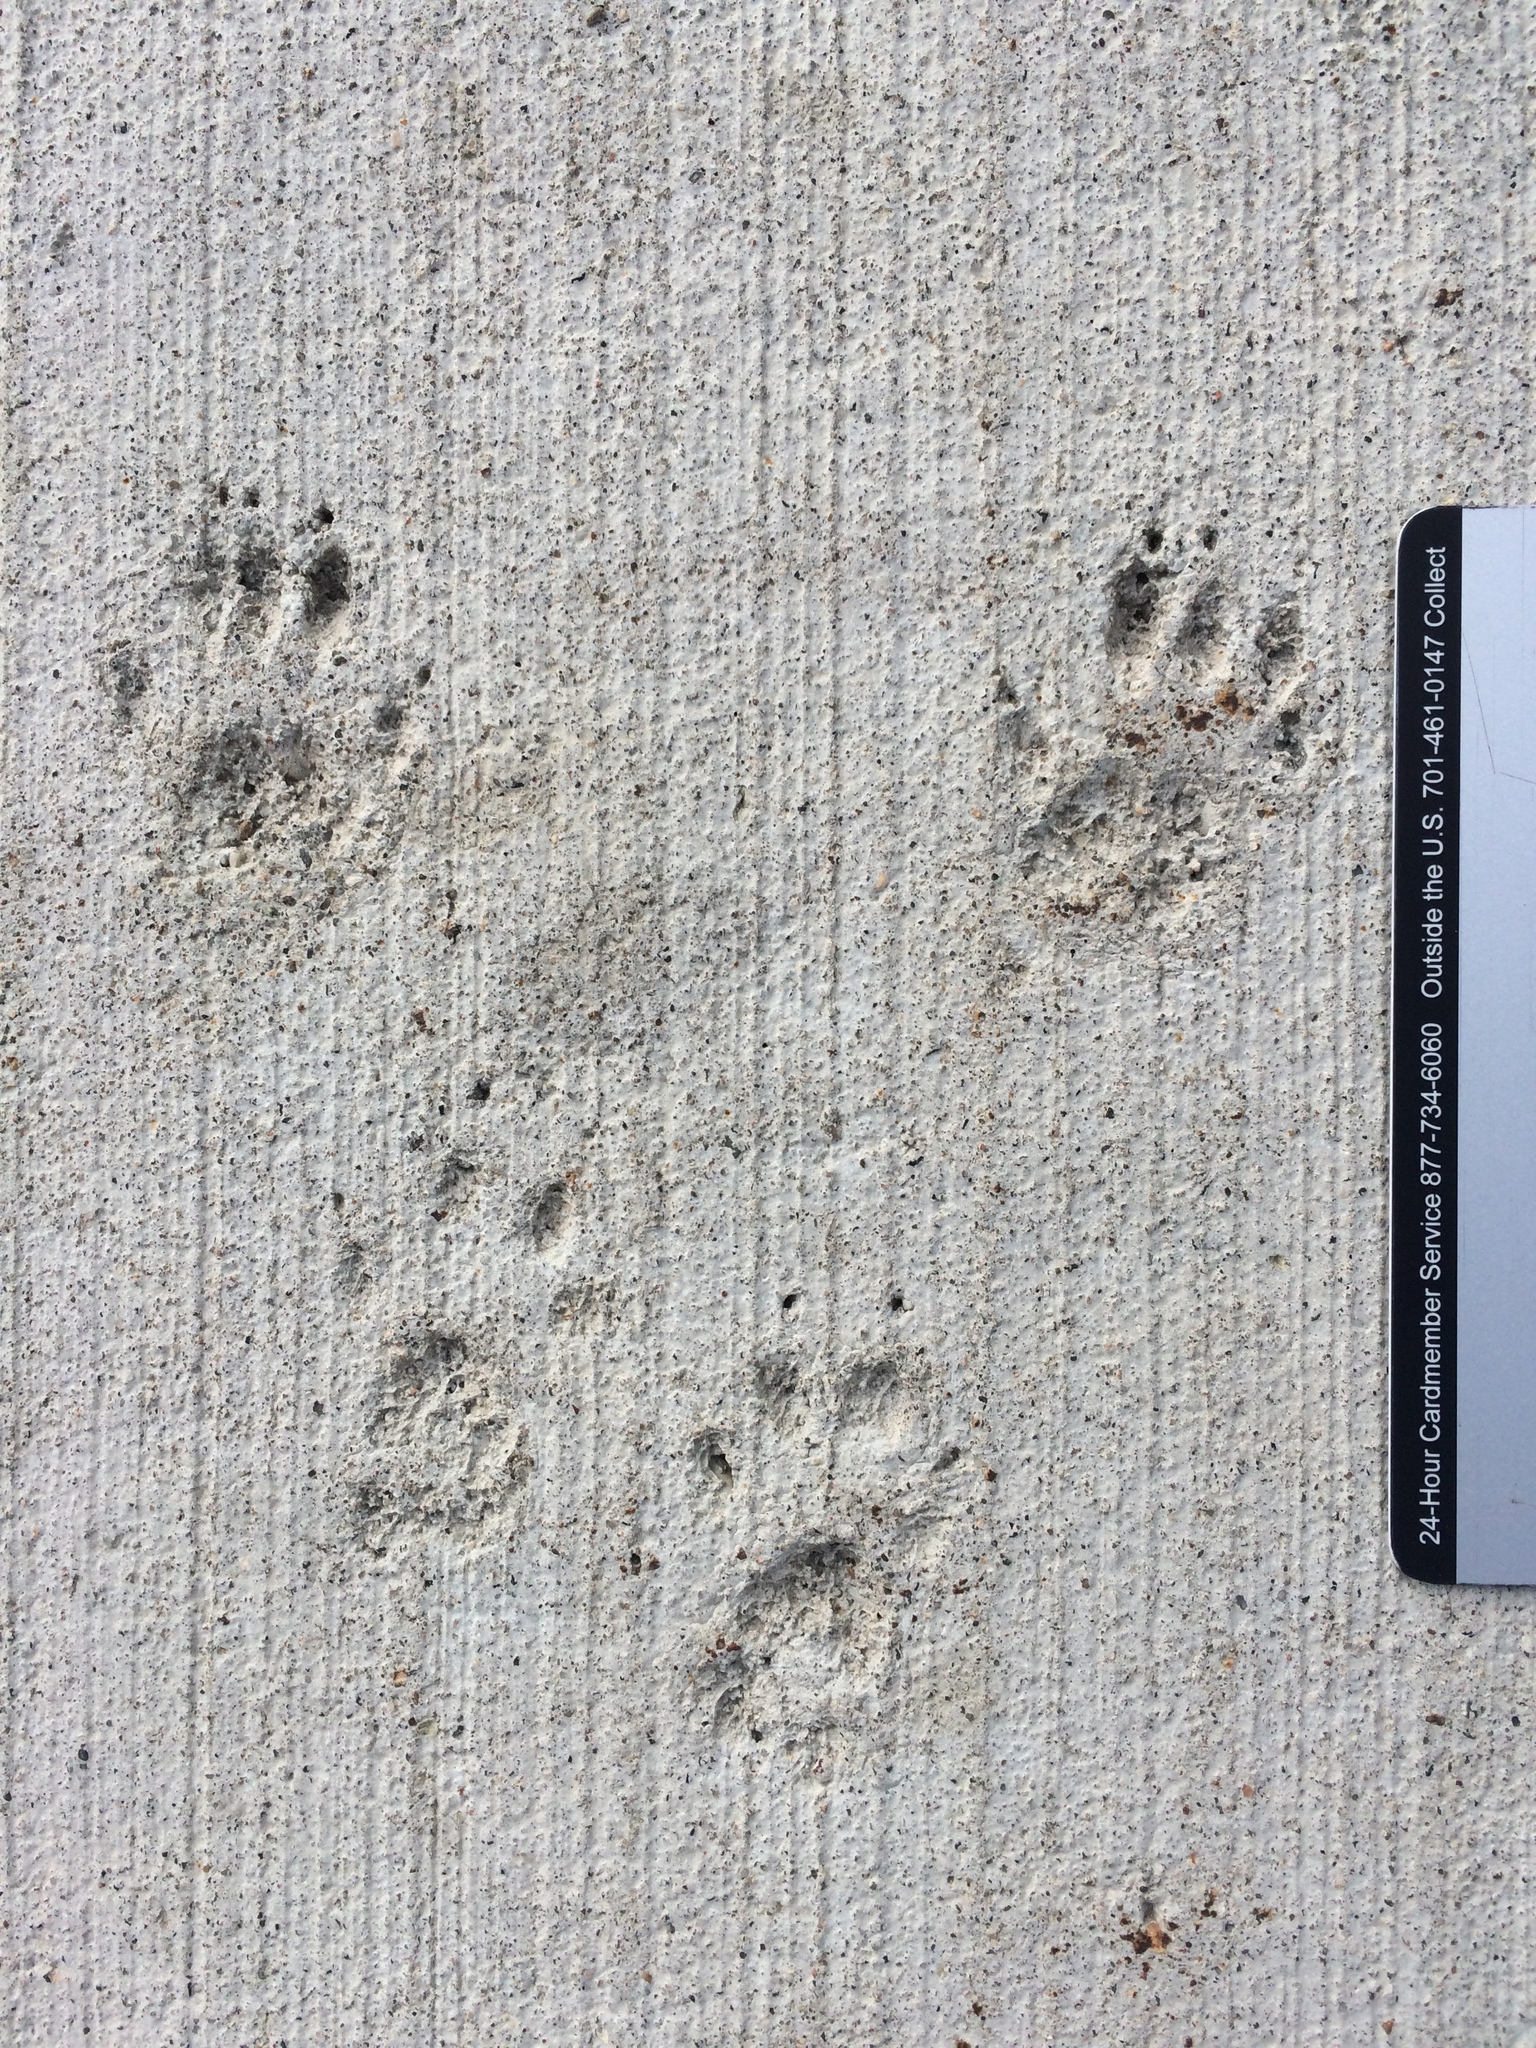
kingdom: Animalia
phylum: Chordata
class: Mammalia
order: Rodentia
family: Sciuridae
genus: Sciurus
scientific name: Sciurus carolinensis
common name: Eastern gray squirrel
